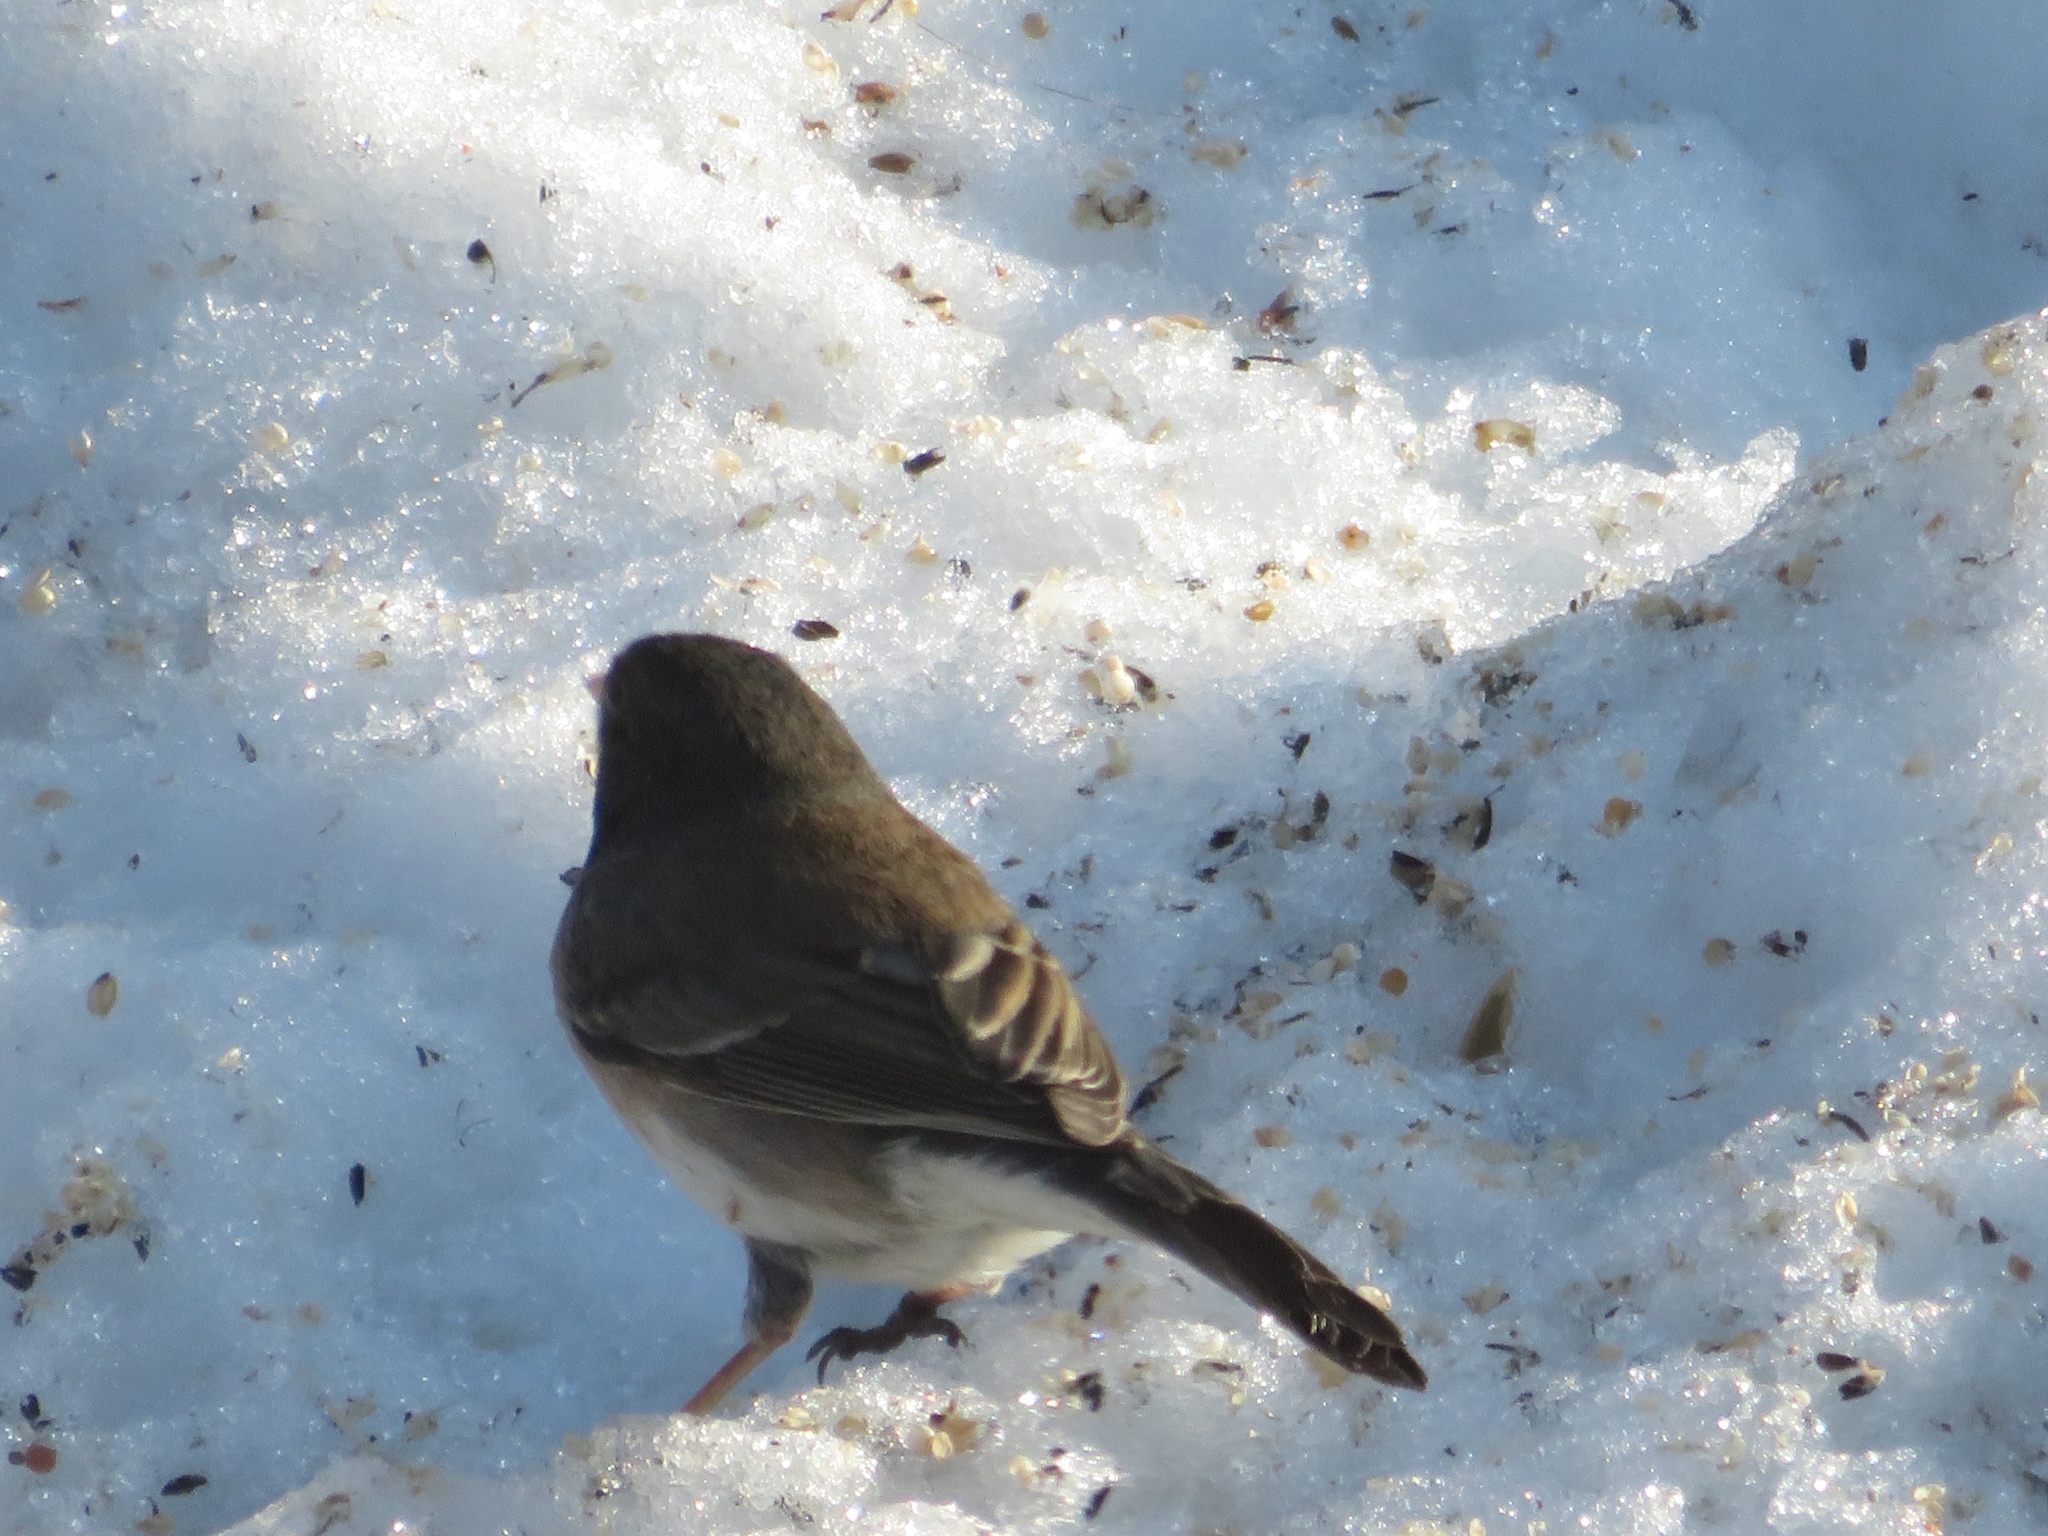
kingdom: Animalia
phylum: Chordata
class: Aves
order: Passeriformes
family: Passerellidae
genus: Junco
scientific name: Junco hyemalis
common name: Dark-eyed junco
